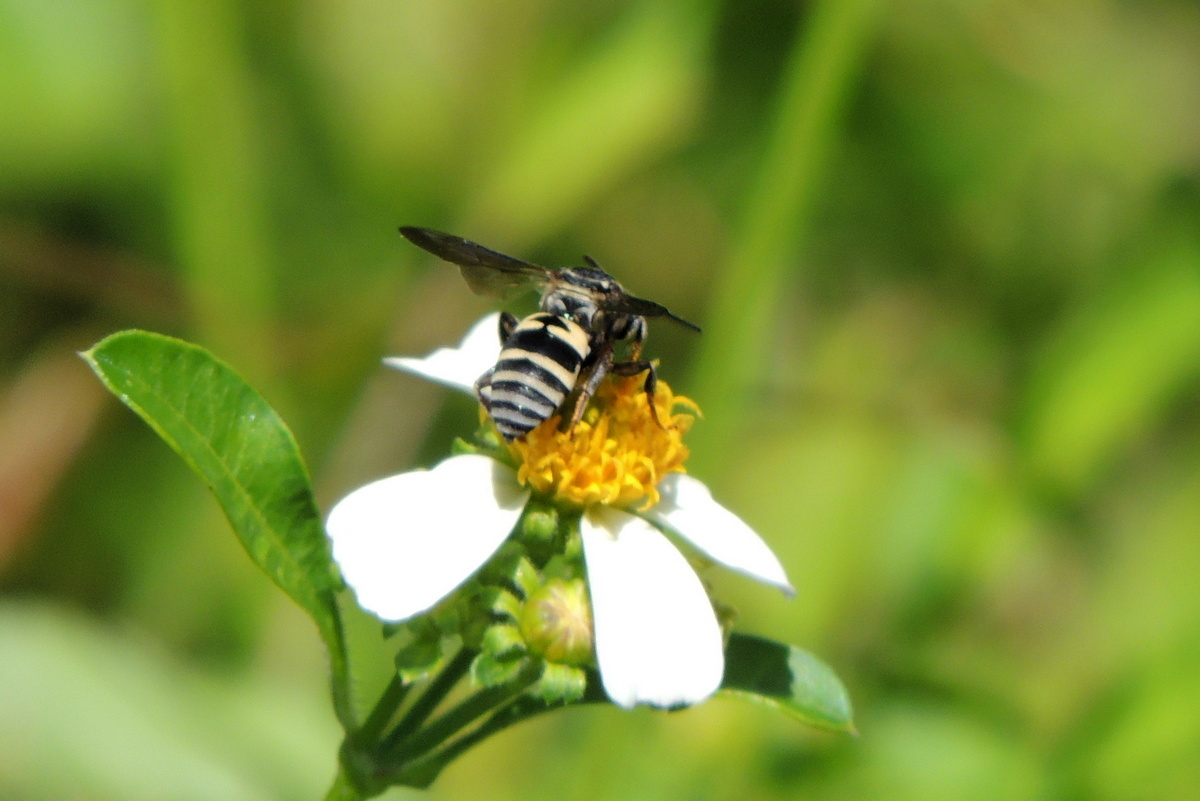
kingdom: Animalia
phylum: Arthropoda
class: Insecta
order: Hymenoptera
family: Apidae
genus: Triepeolus
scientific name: Triepeolus lunatus
